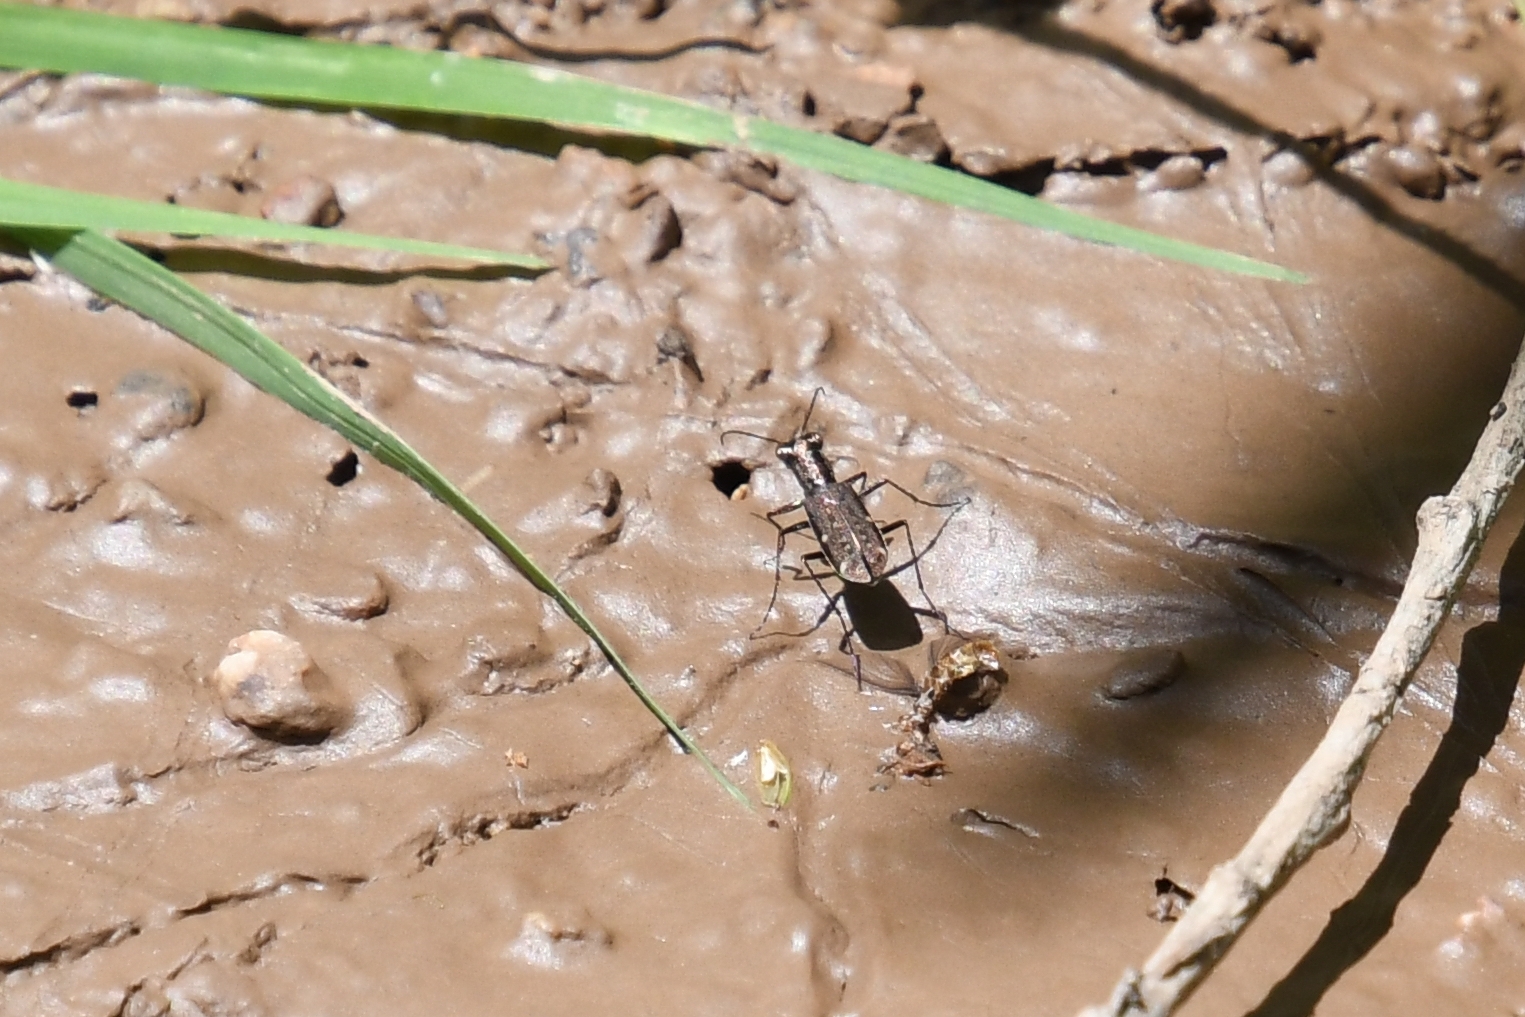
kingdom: Animalia
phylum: Arthropoda
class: Insecta
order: Coleoptera
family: Carabidae
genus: Brasiella
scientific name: Brasiella viridisticta
